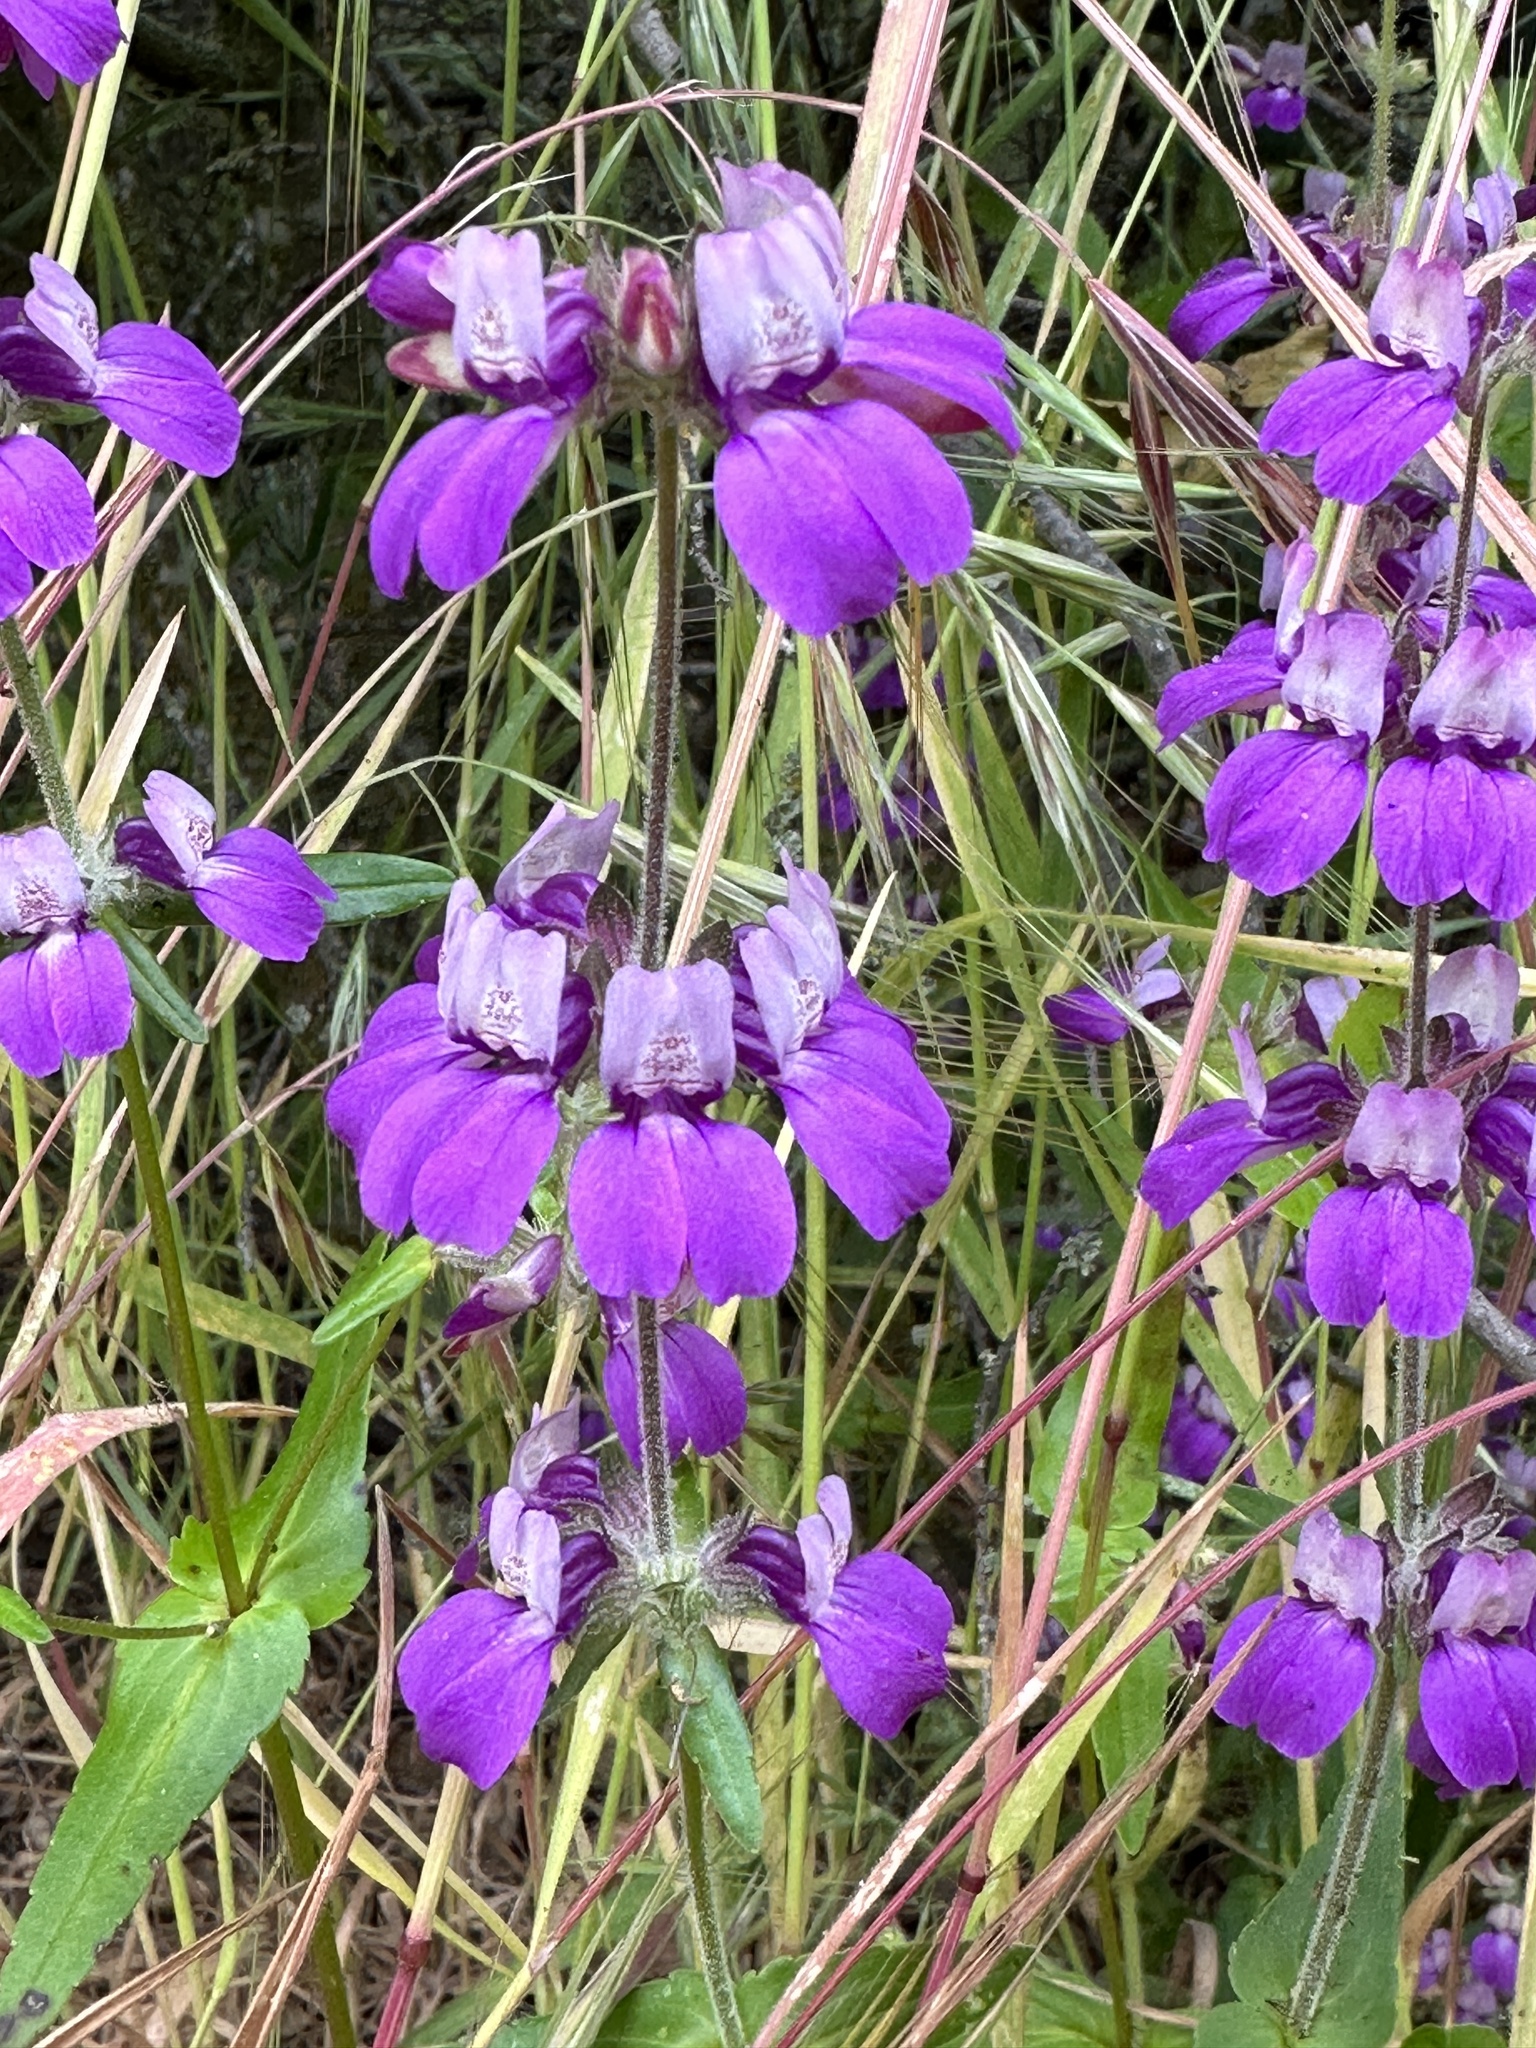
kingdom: Plantae
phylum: Tracheophyta
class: Magnoliopsida
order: Lamiales
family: Plantaginaceae
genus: Collinsia
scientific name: Collinsia heterophylla
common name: Chinese-houses
